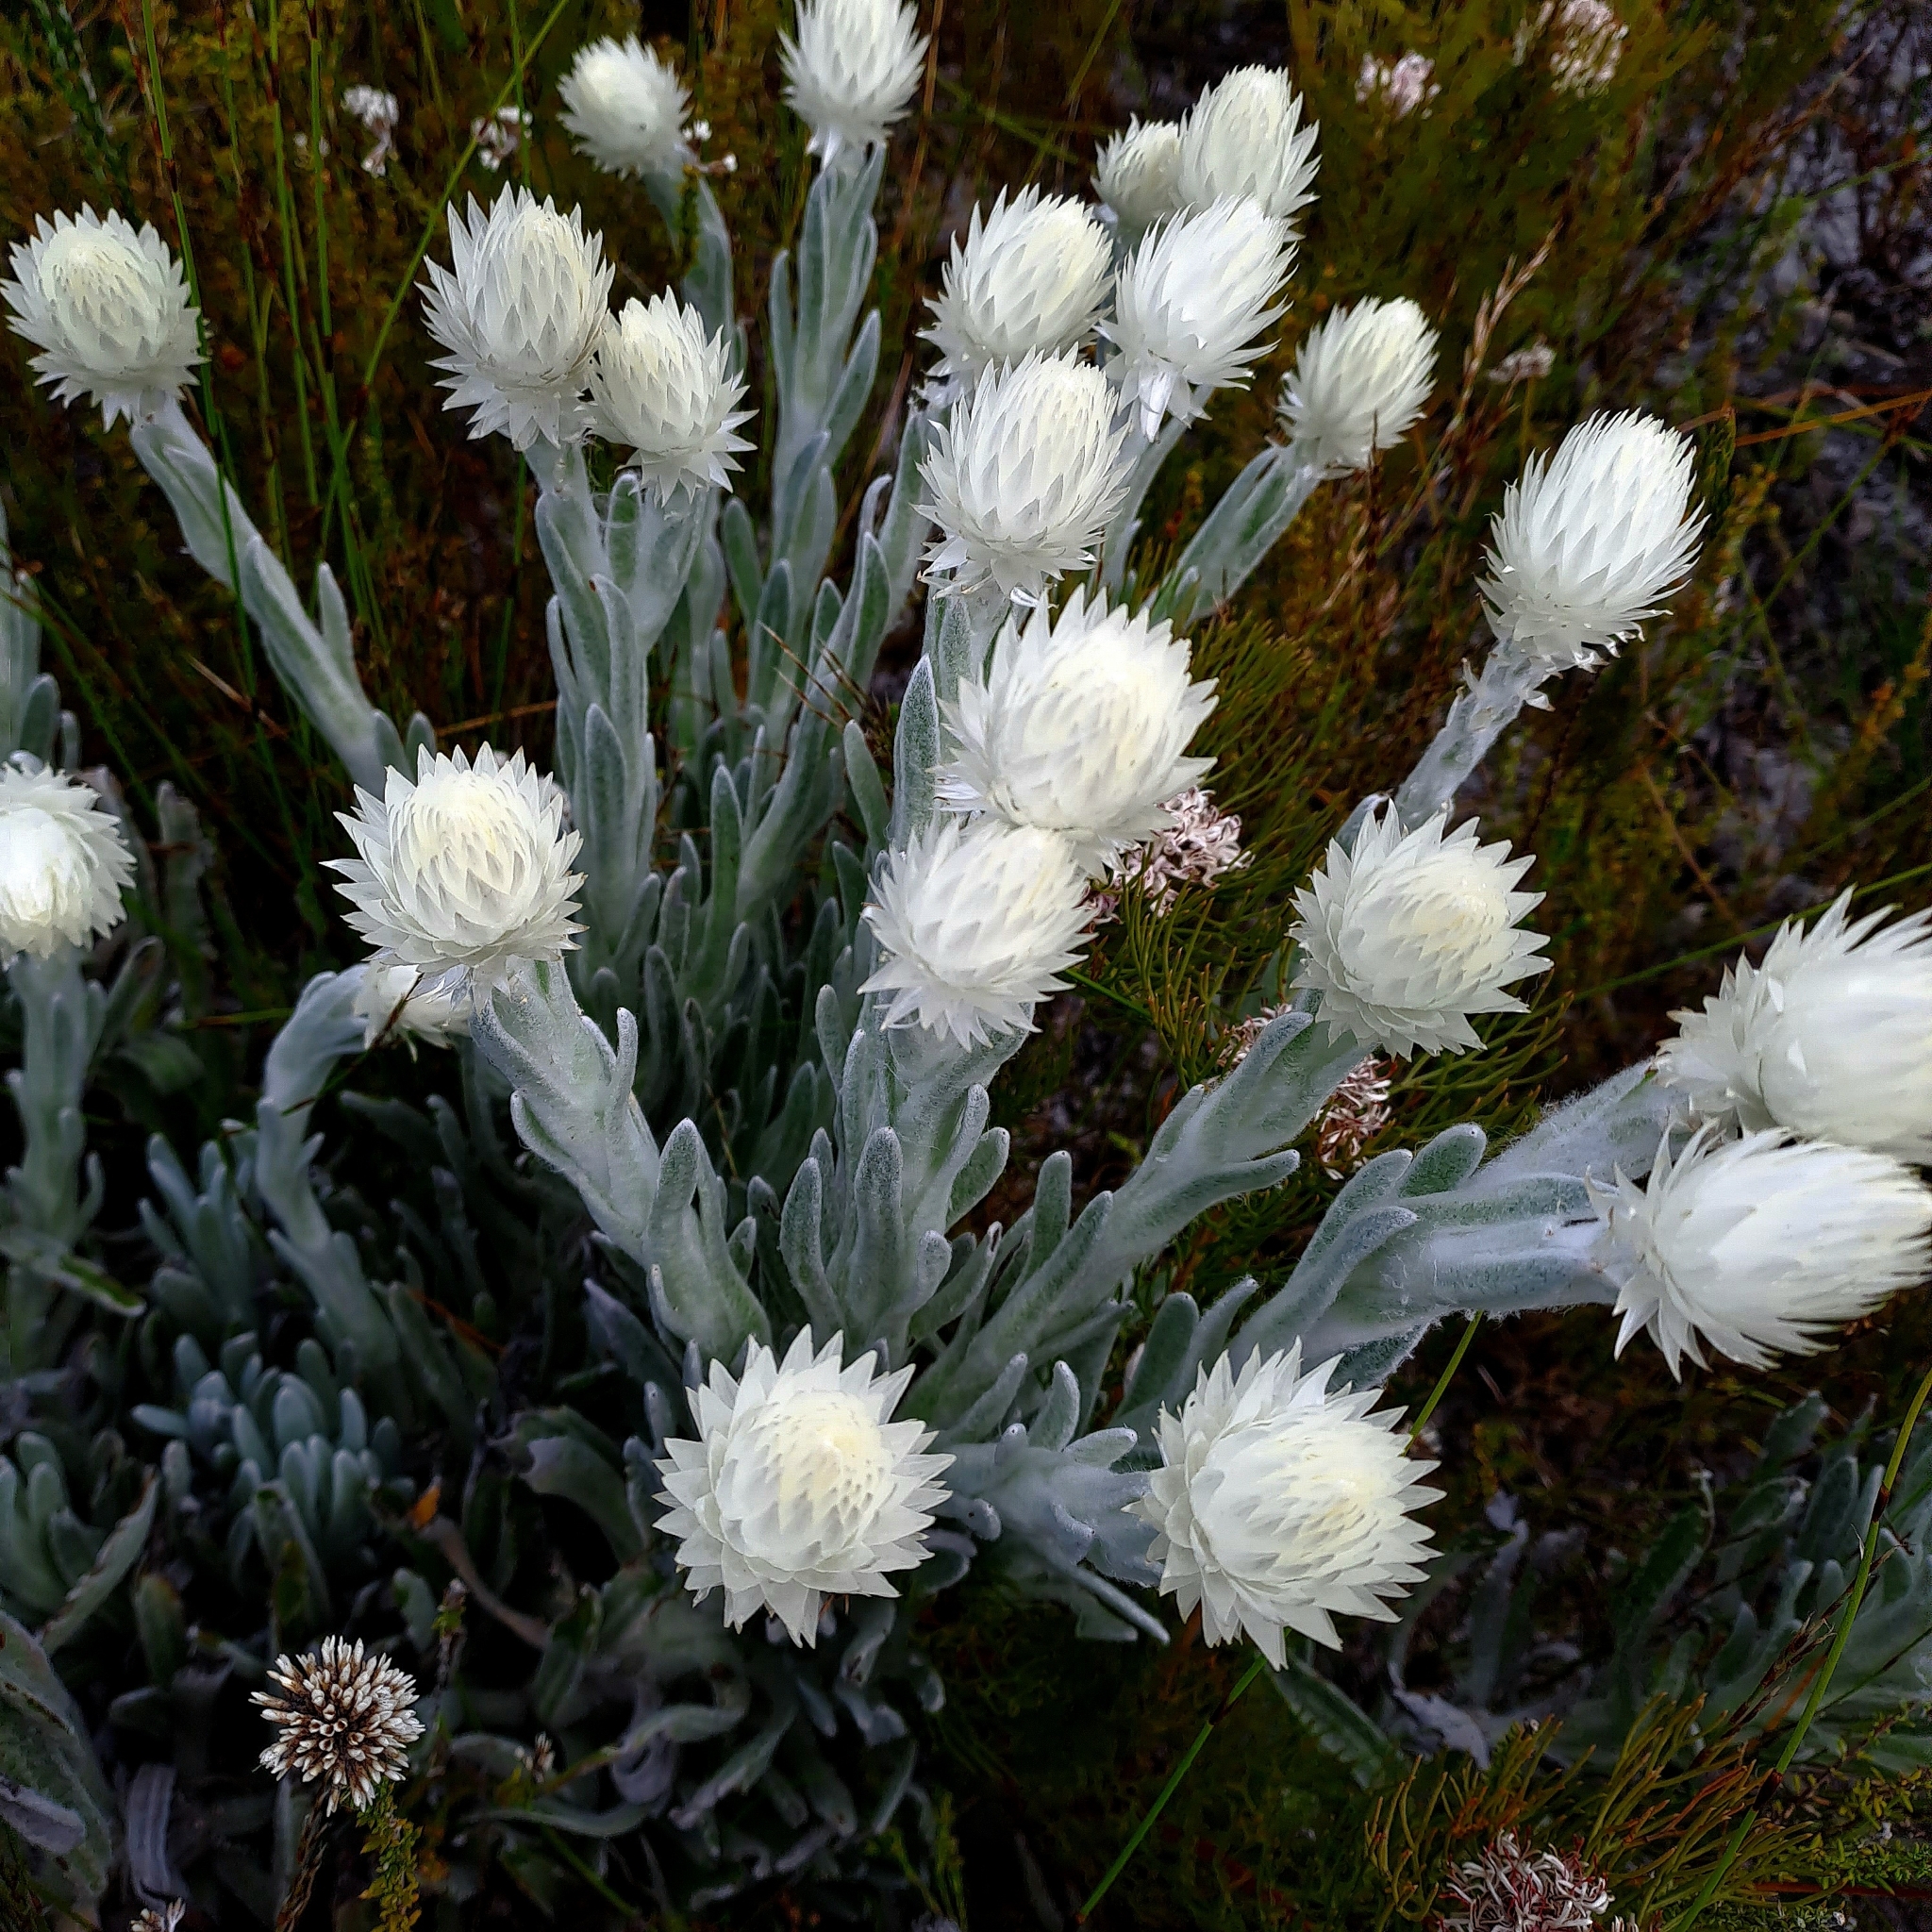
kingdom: Plantae
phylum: Tracheophyta
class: Magnoliopsida
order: Asterales
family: Asteraceae
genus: Syncarpha
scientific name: Syncarpha vestita
